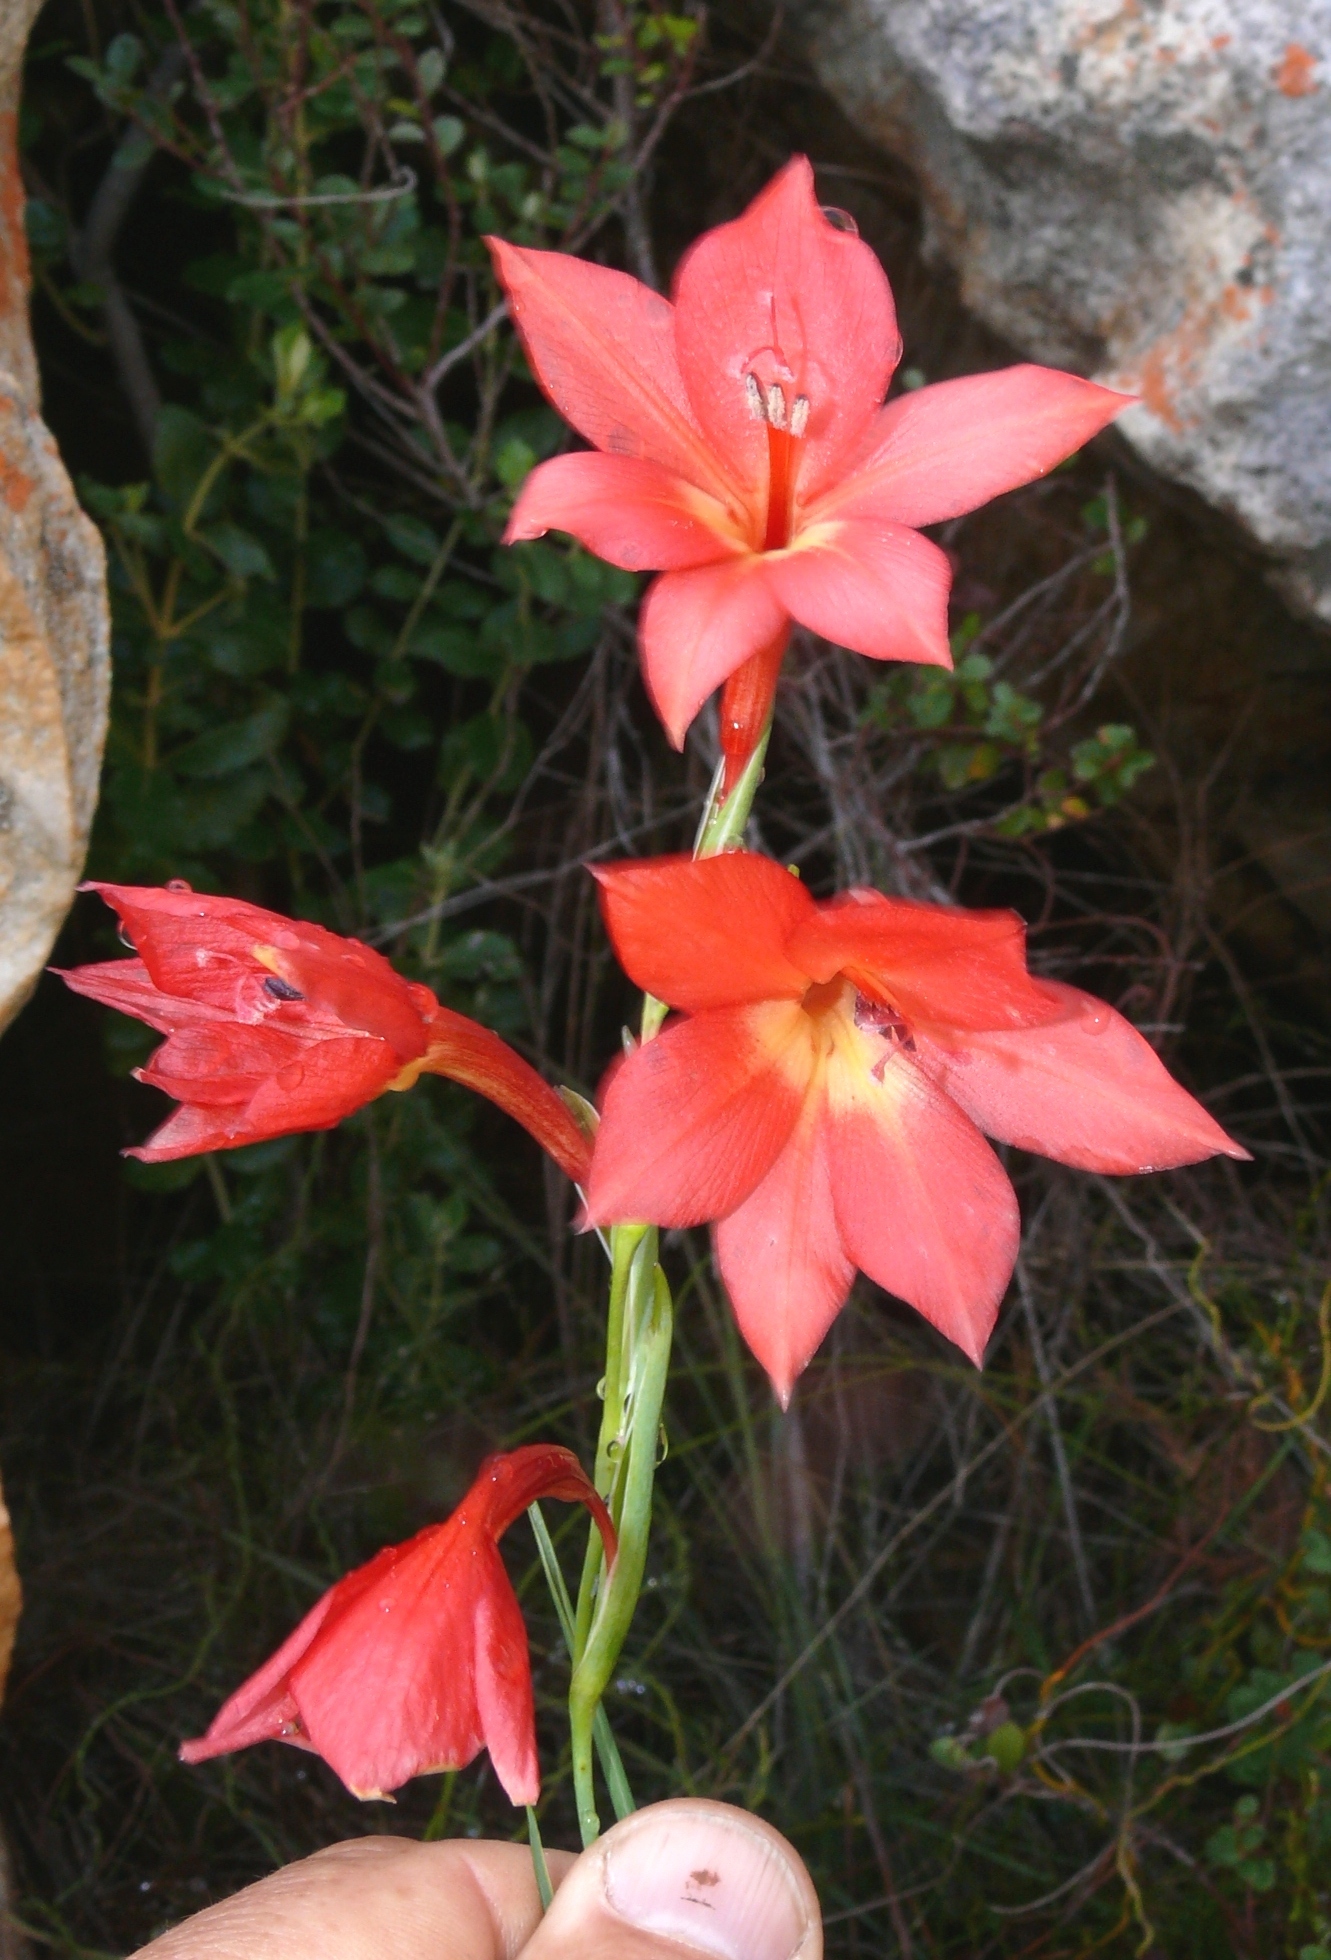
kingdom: Plantae
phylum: Tracheophyta
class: Liliopsida
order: Asparagales
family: Iridaceae
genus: Gladiolus
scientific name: Gladiolus priorii
